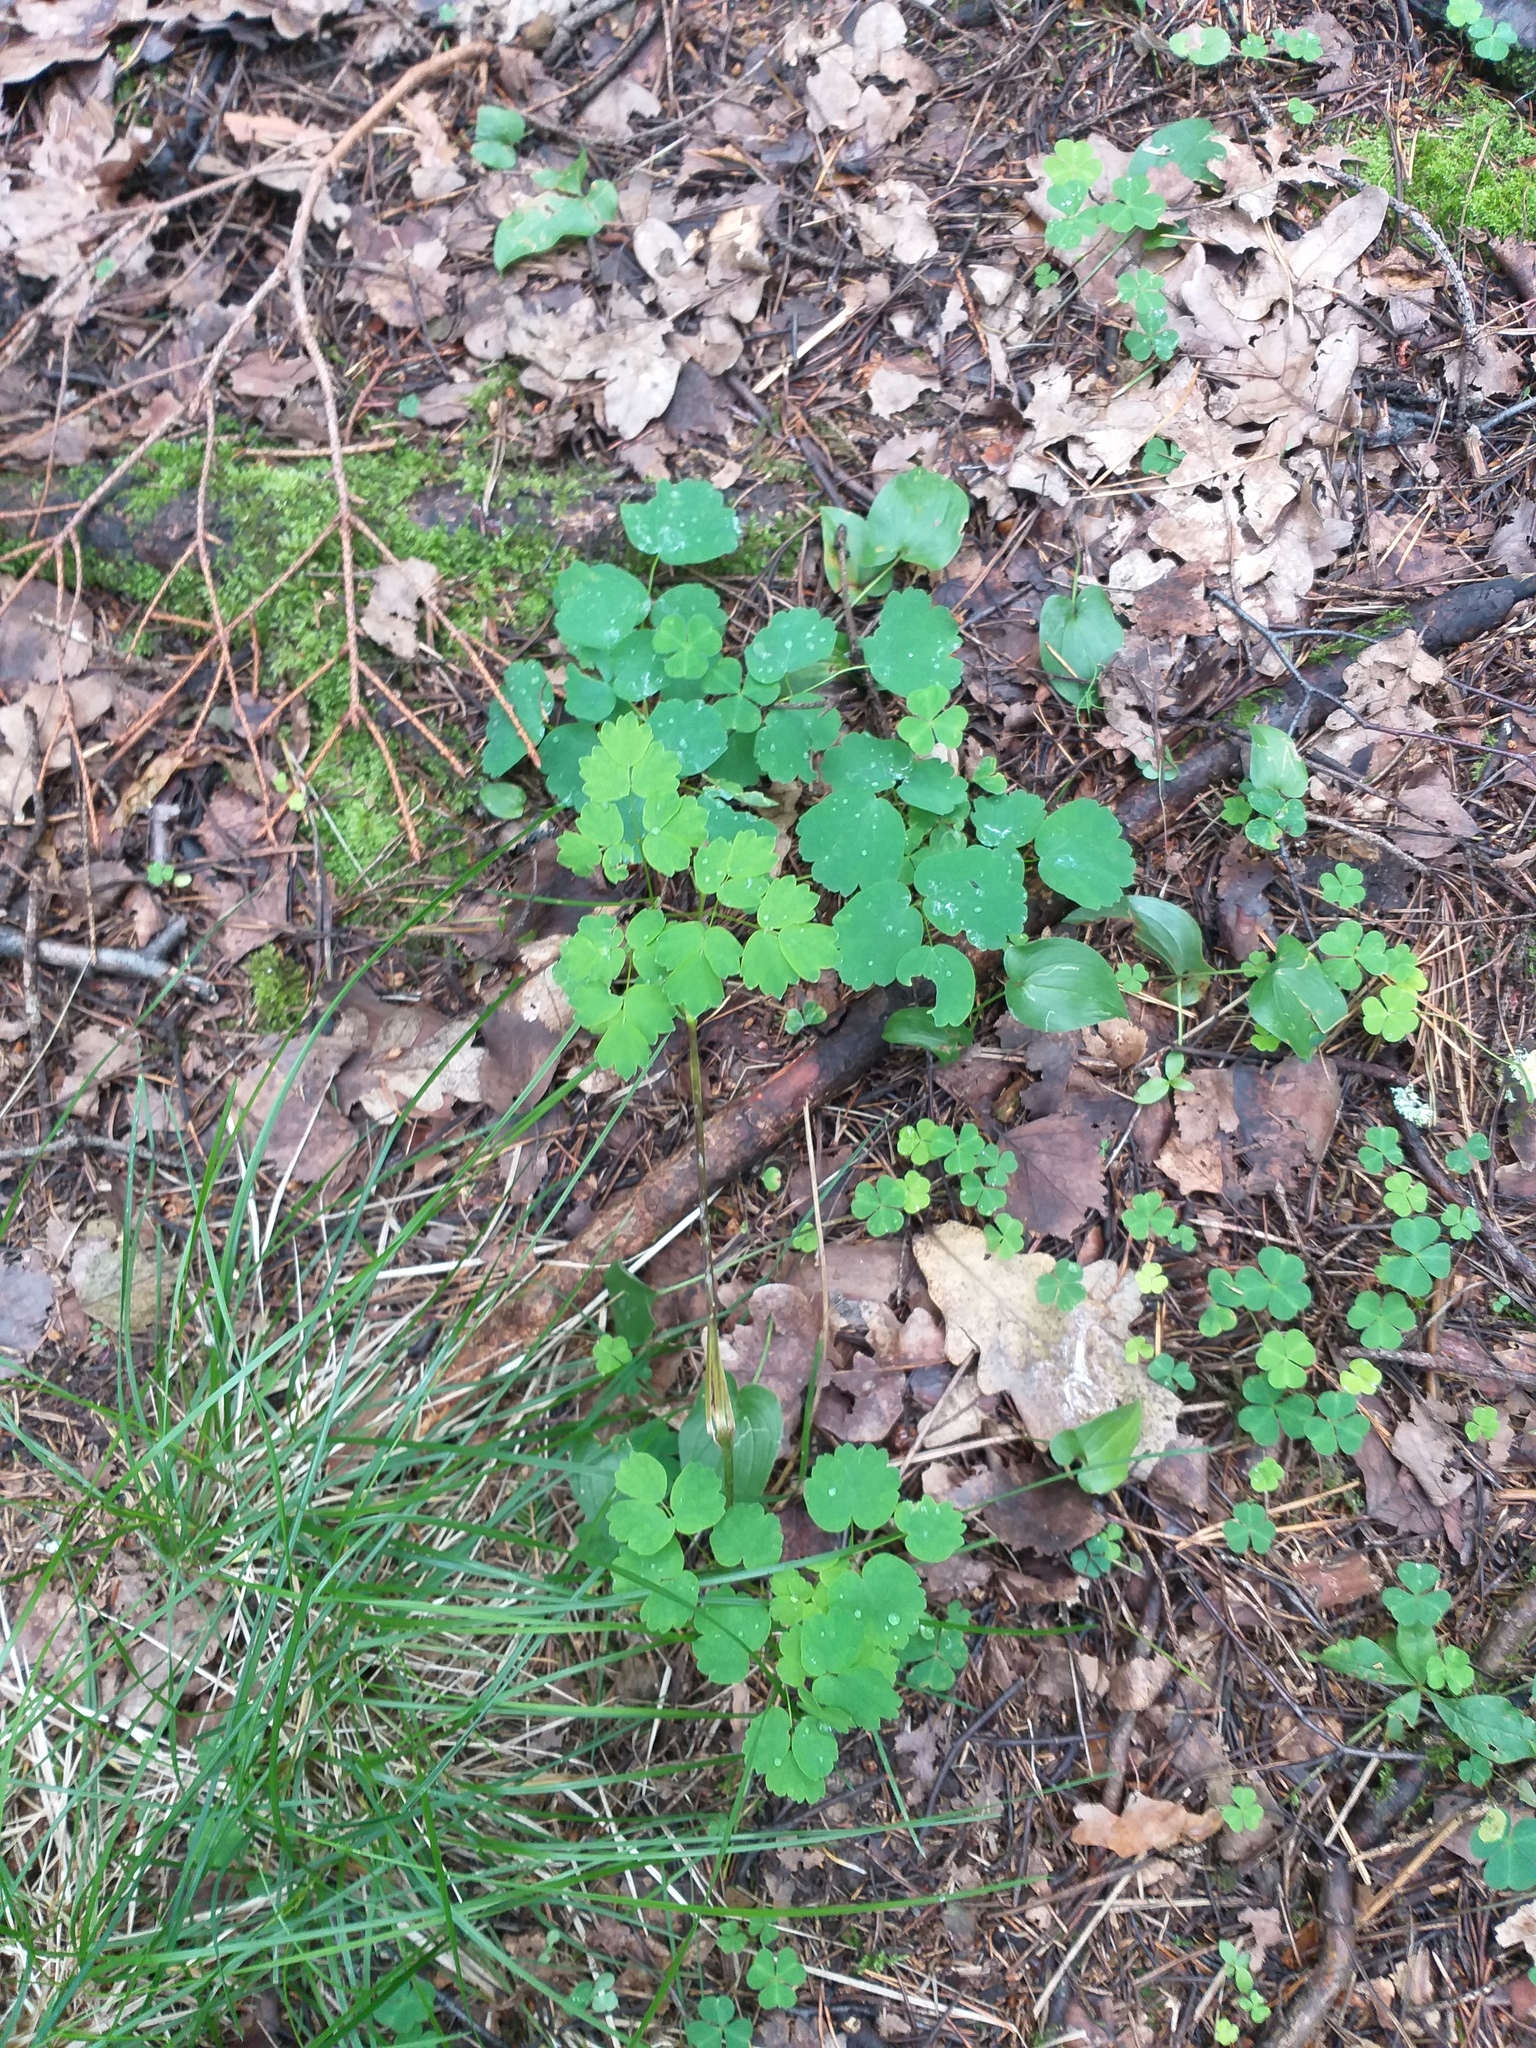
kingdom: Plantae
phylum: Tracheophyta
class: Magnoliopsida
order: Ranunculales
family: Ranunculaceae
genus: Thalictrum
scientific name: Thalictrum aquilegiifolium
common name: French meadow-rue
